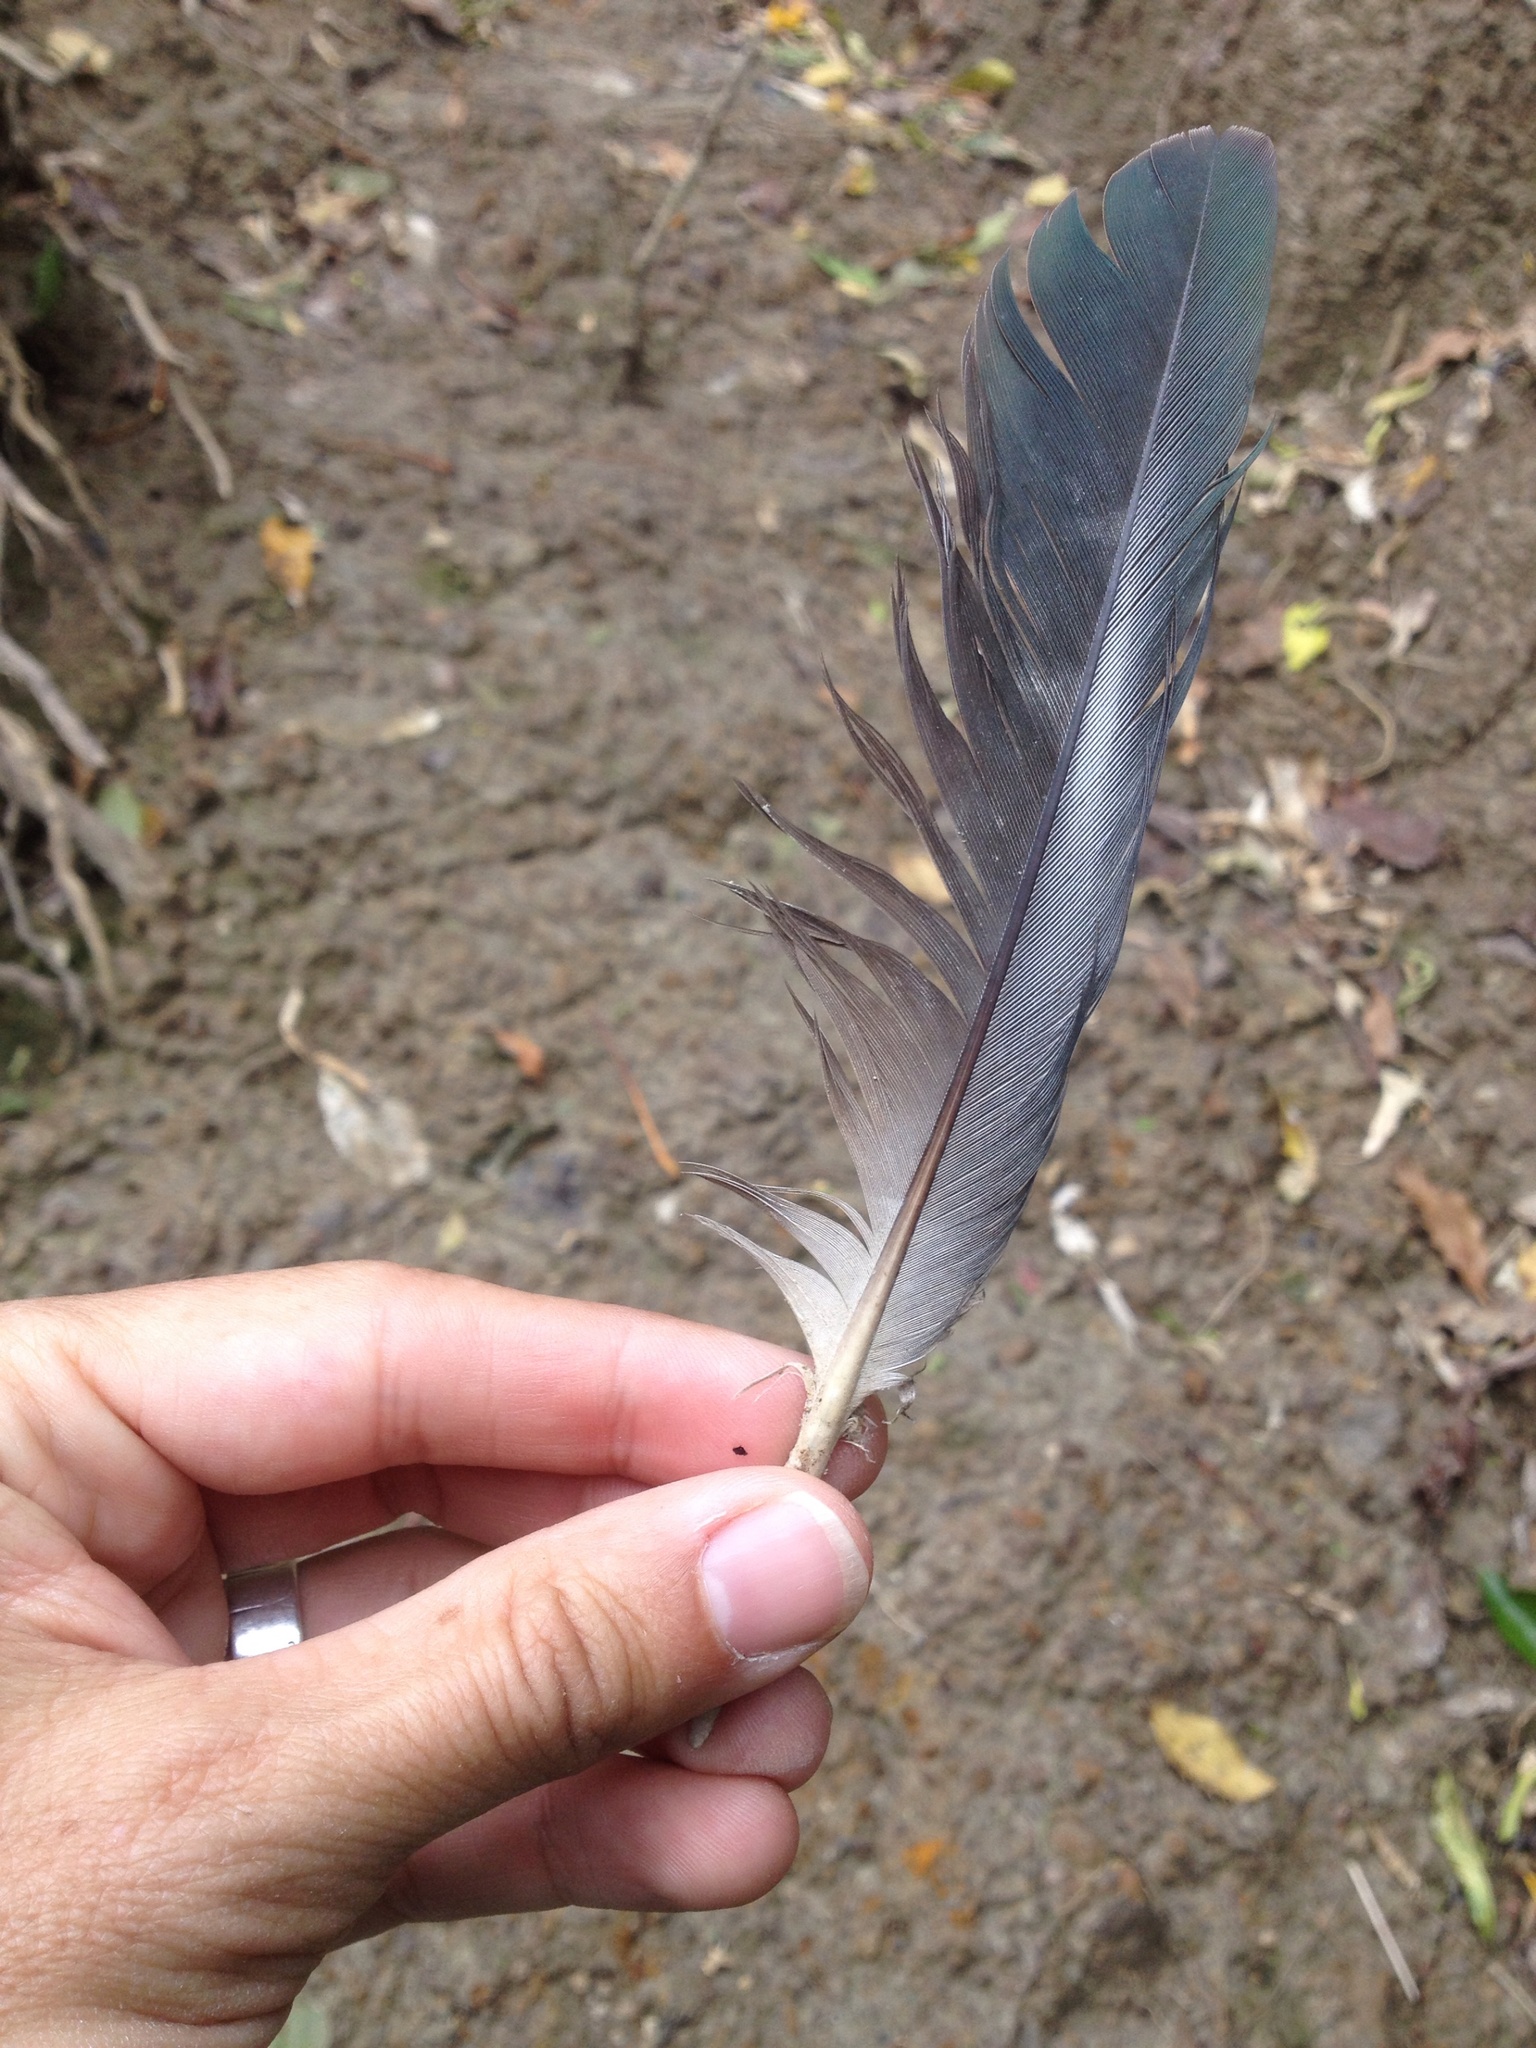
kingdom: Animalia
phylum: Chordata
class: Aves
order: Columbiformes
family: Columbidae
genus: Hemiphaga
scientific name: Hemiphaga novaeseelandiae
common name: New zealand pigeon
